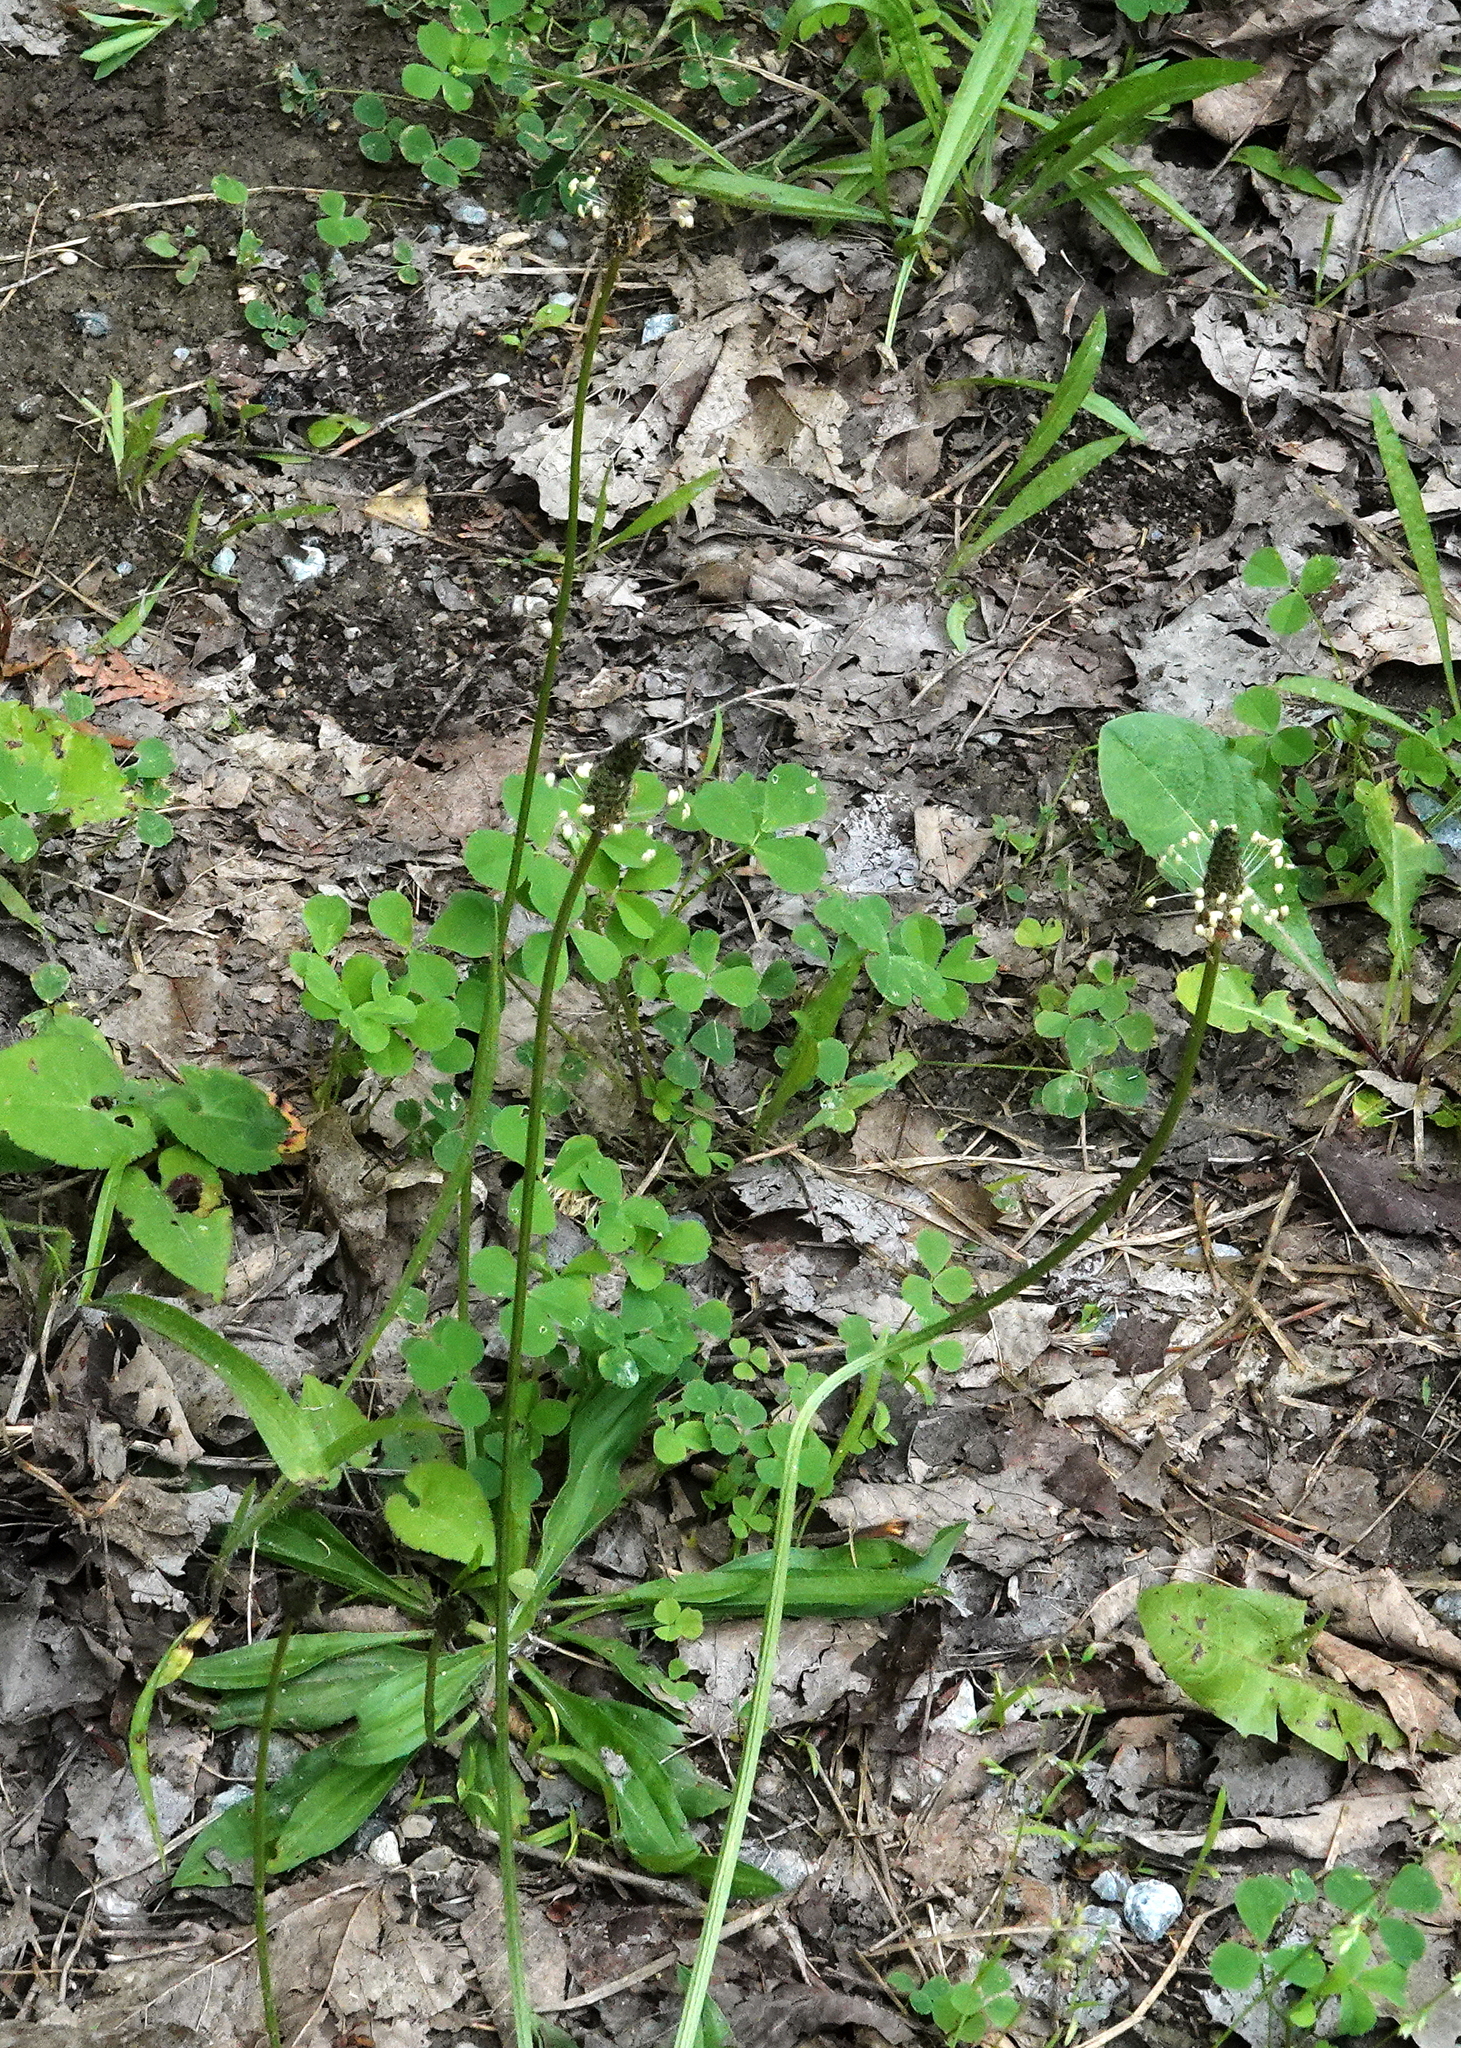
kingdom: Plantae
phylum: Tracheophyta
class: Magnoliopsida
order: Lamiales
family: Plantaginaceae
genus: Plantago
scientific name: Plantago lanceolata
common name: Ribwort plantain
